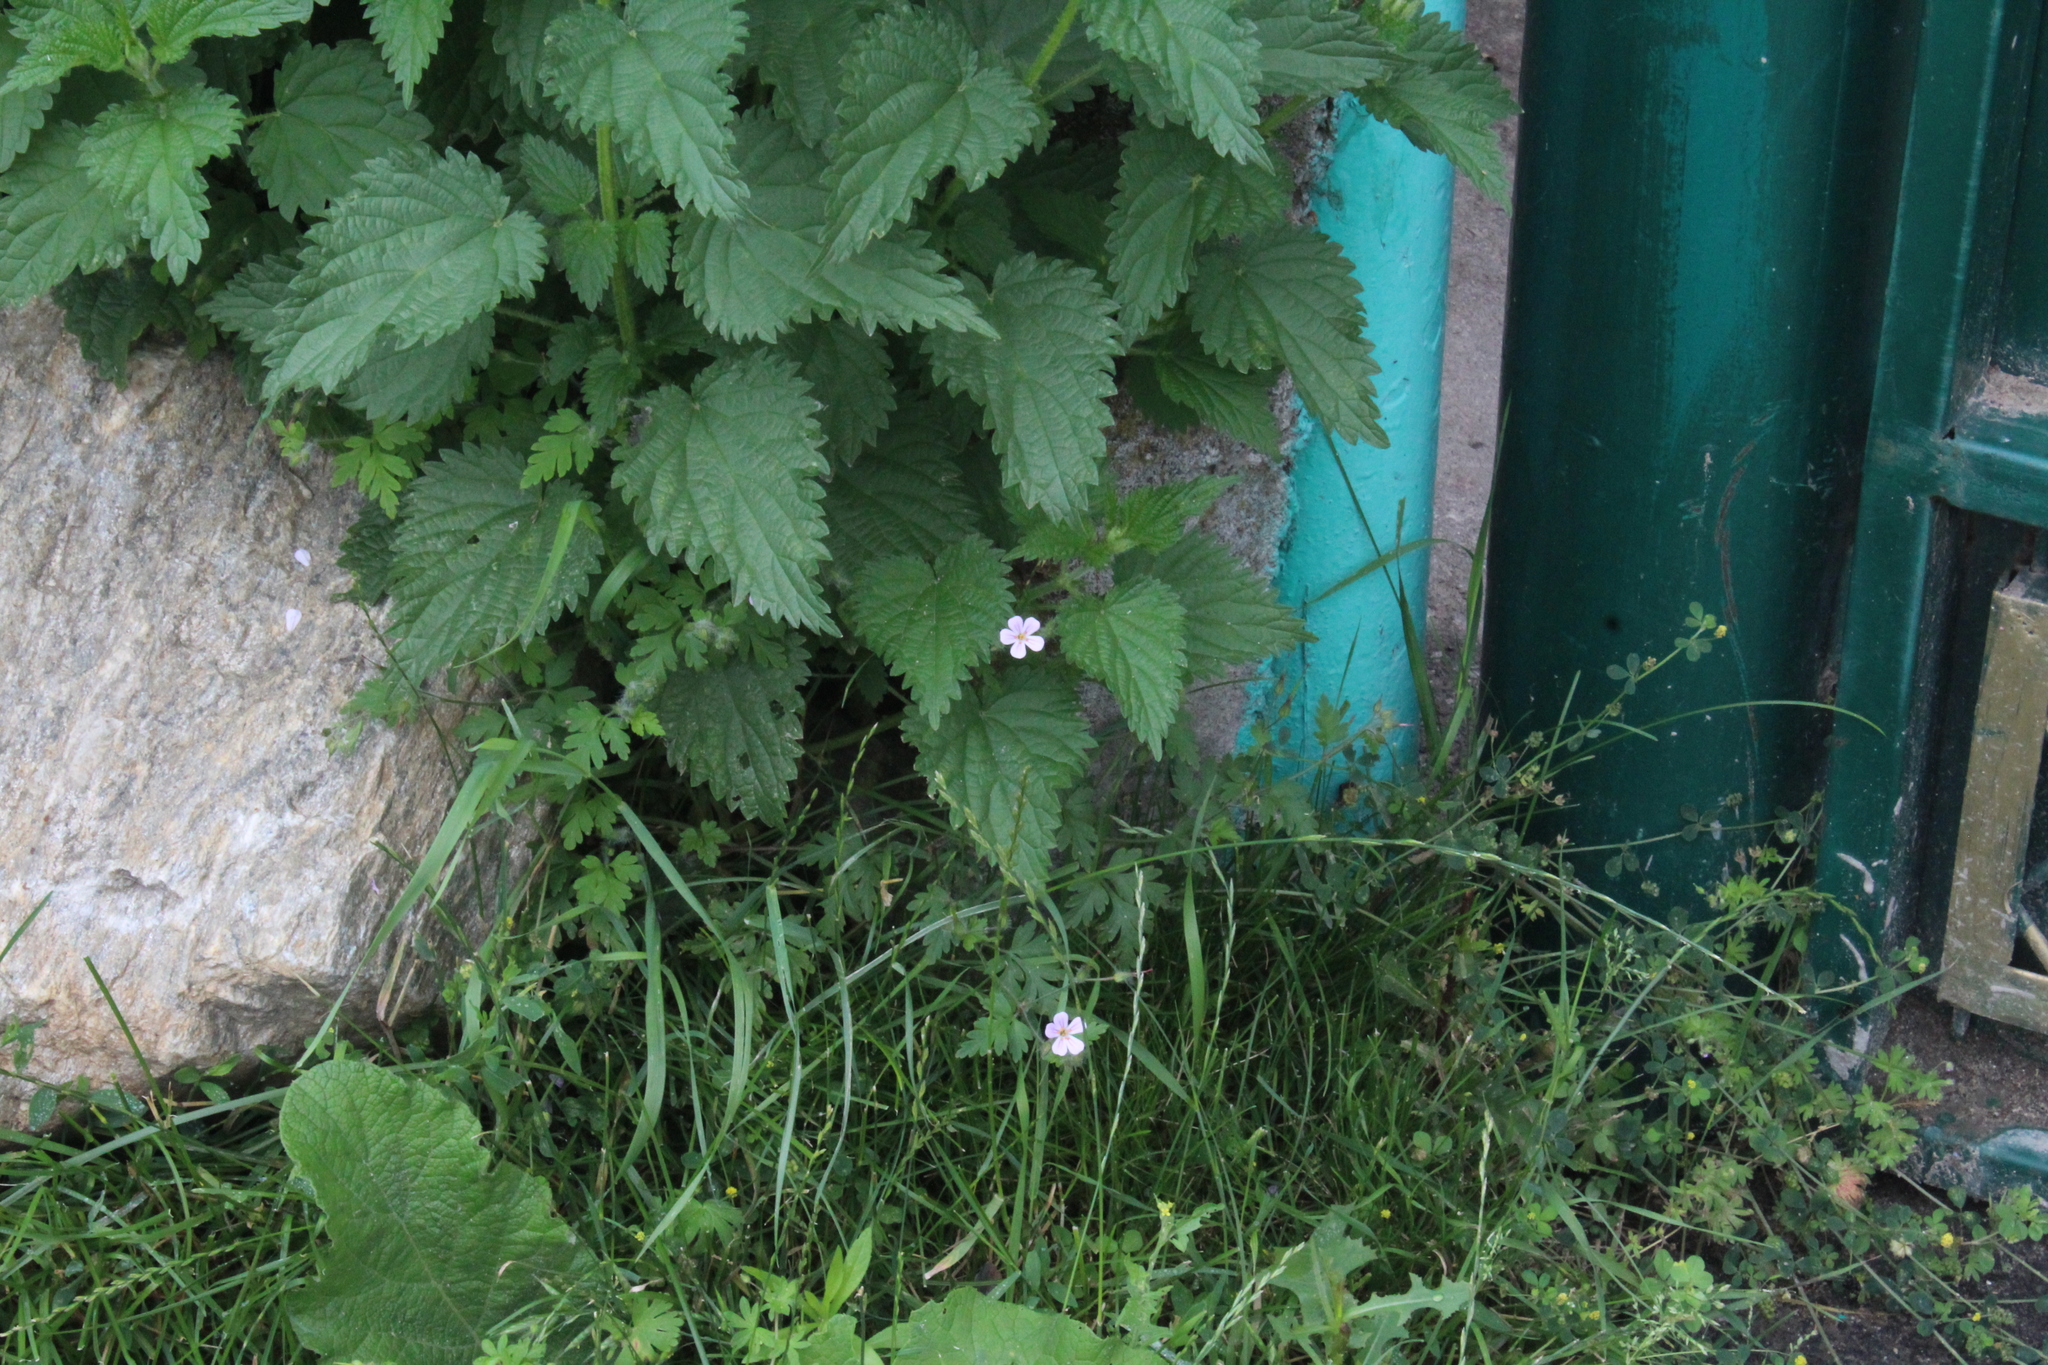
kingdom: Plantae
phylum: Tracheophyta
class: Magnoliopsida
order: Geraniales
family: Geraniaceae
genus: Geranium
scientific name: Geranium robertianum
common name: Herb-robert
